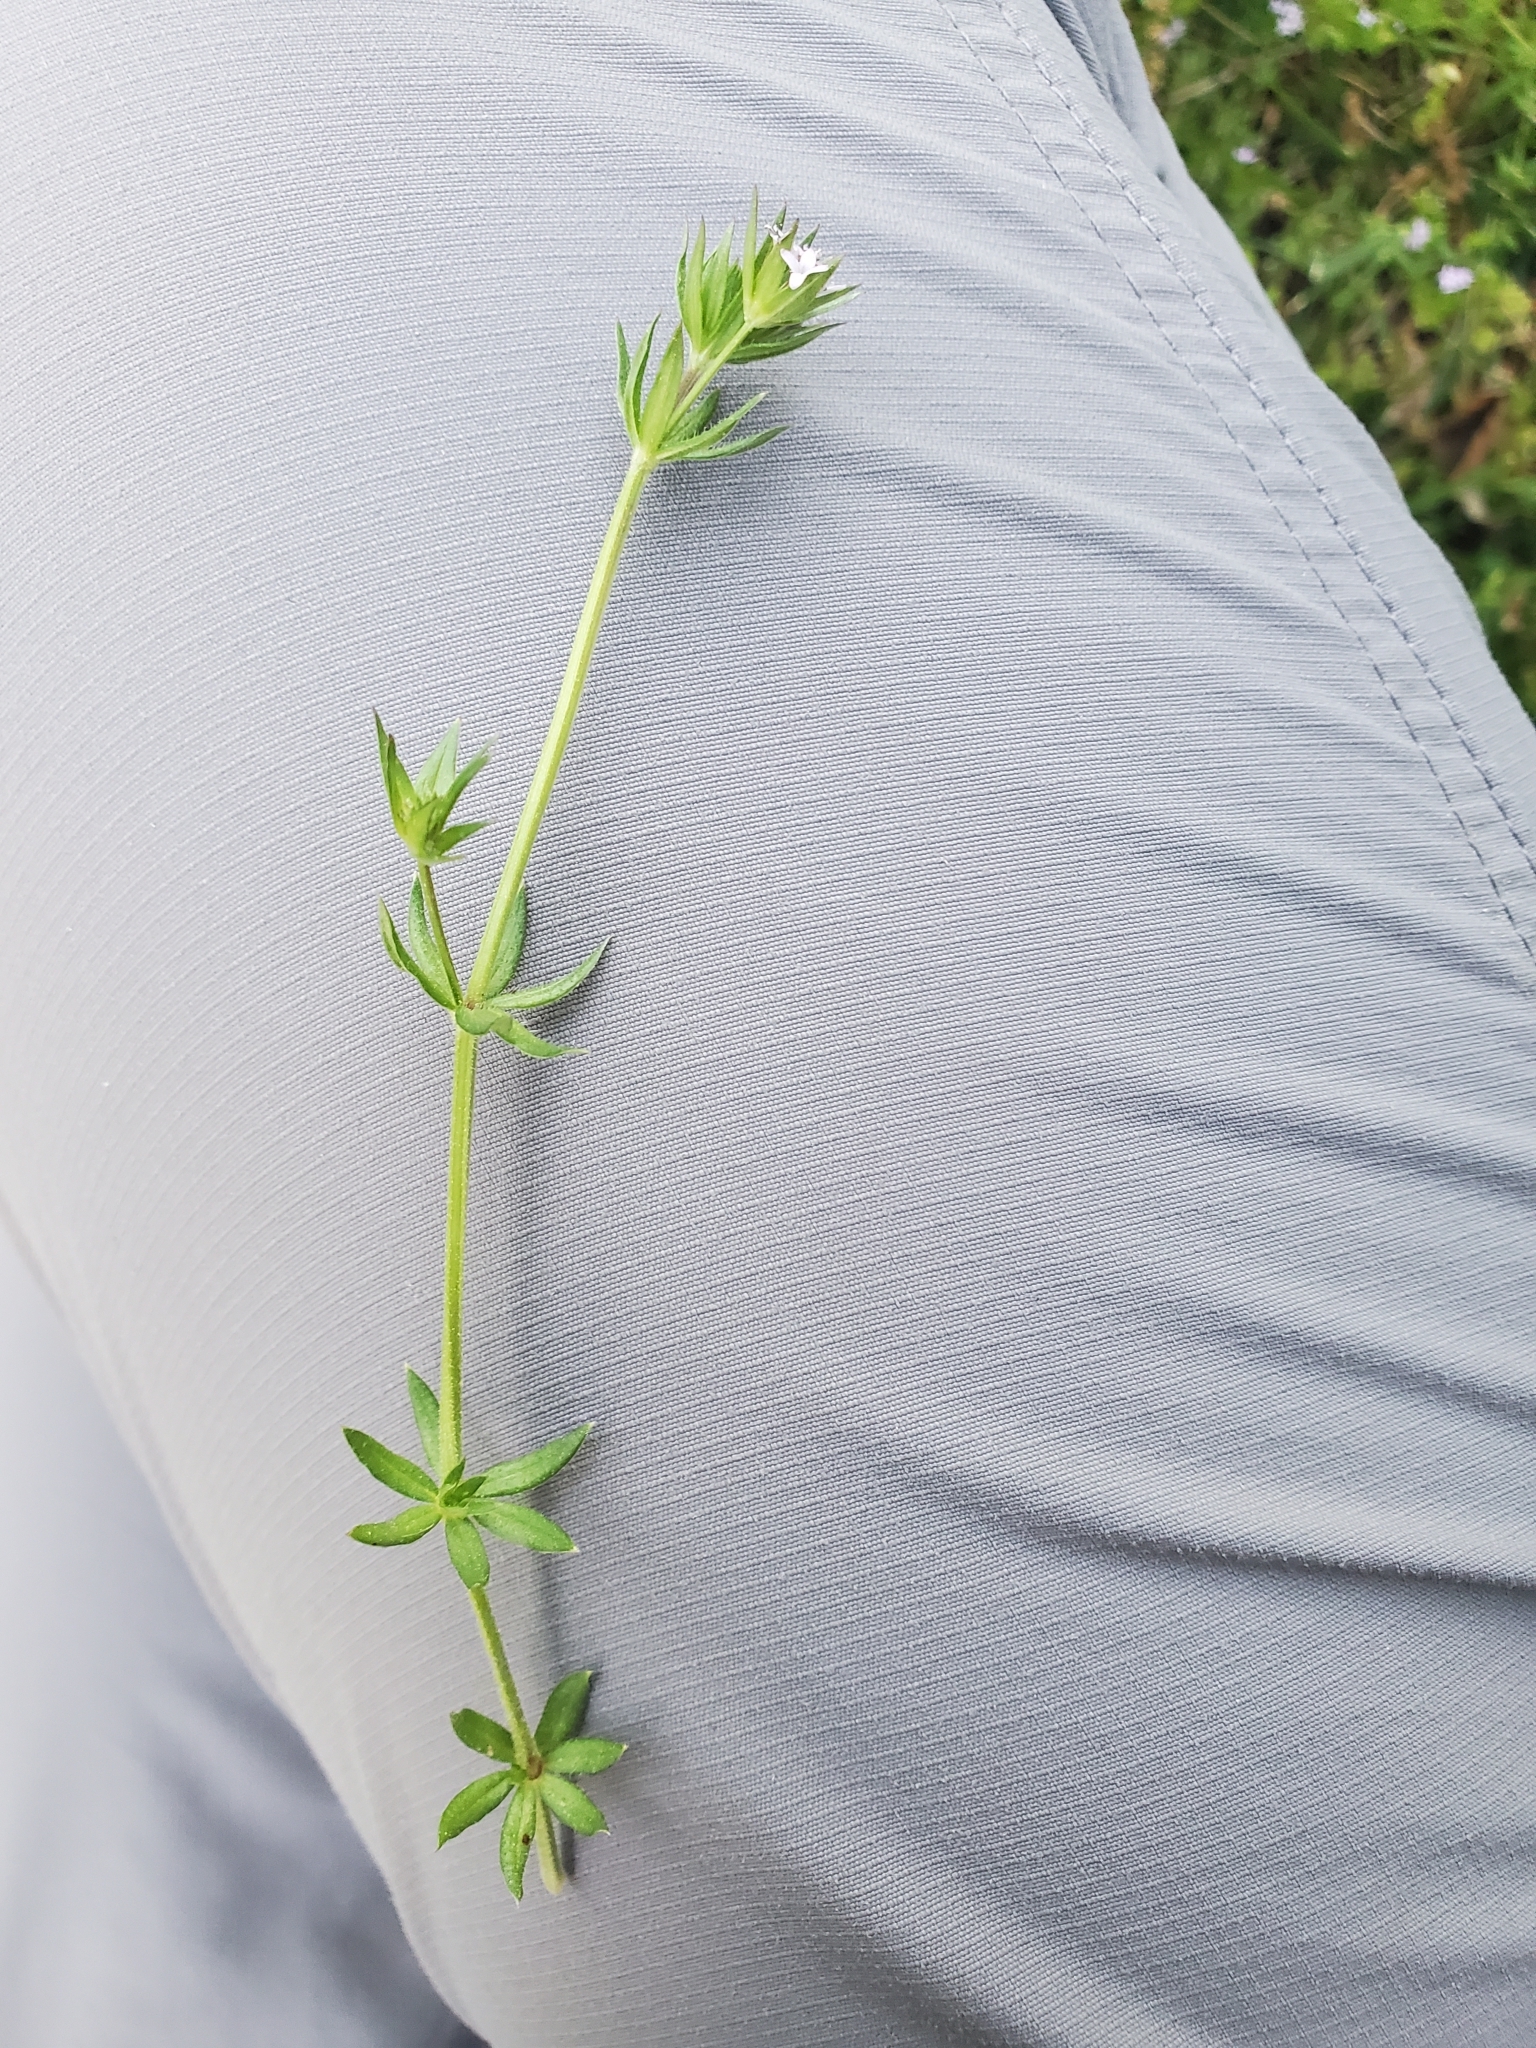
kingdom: Plantae
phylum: Tracheophyta
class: Magnoliopsida
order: Gentianales
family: Rubiaceae
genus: Sherardia
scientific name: Sherardia arvensis
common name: Field madder
